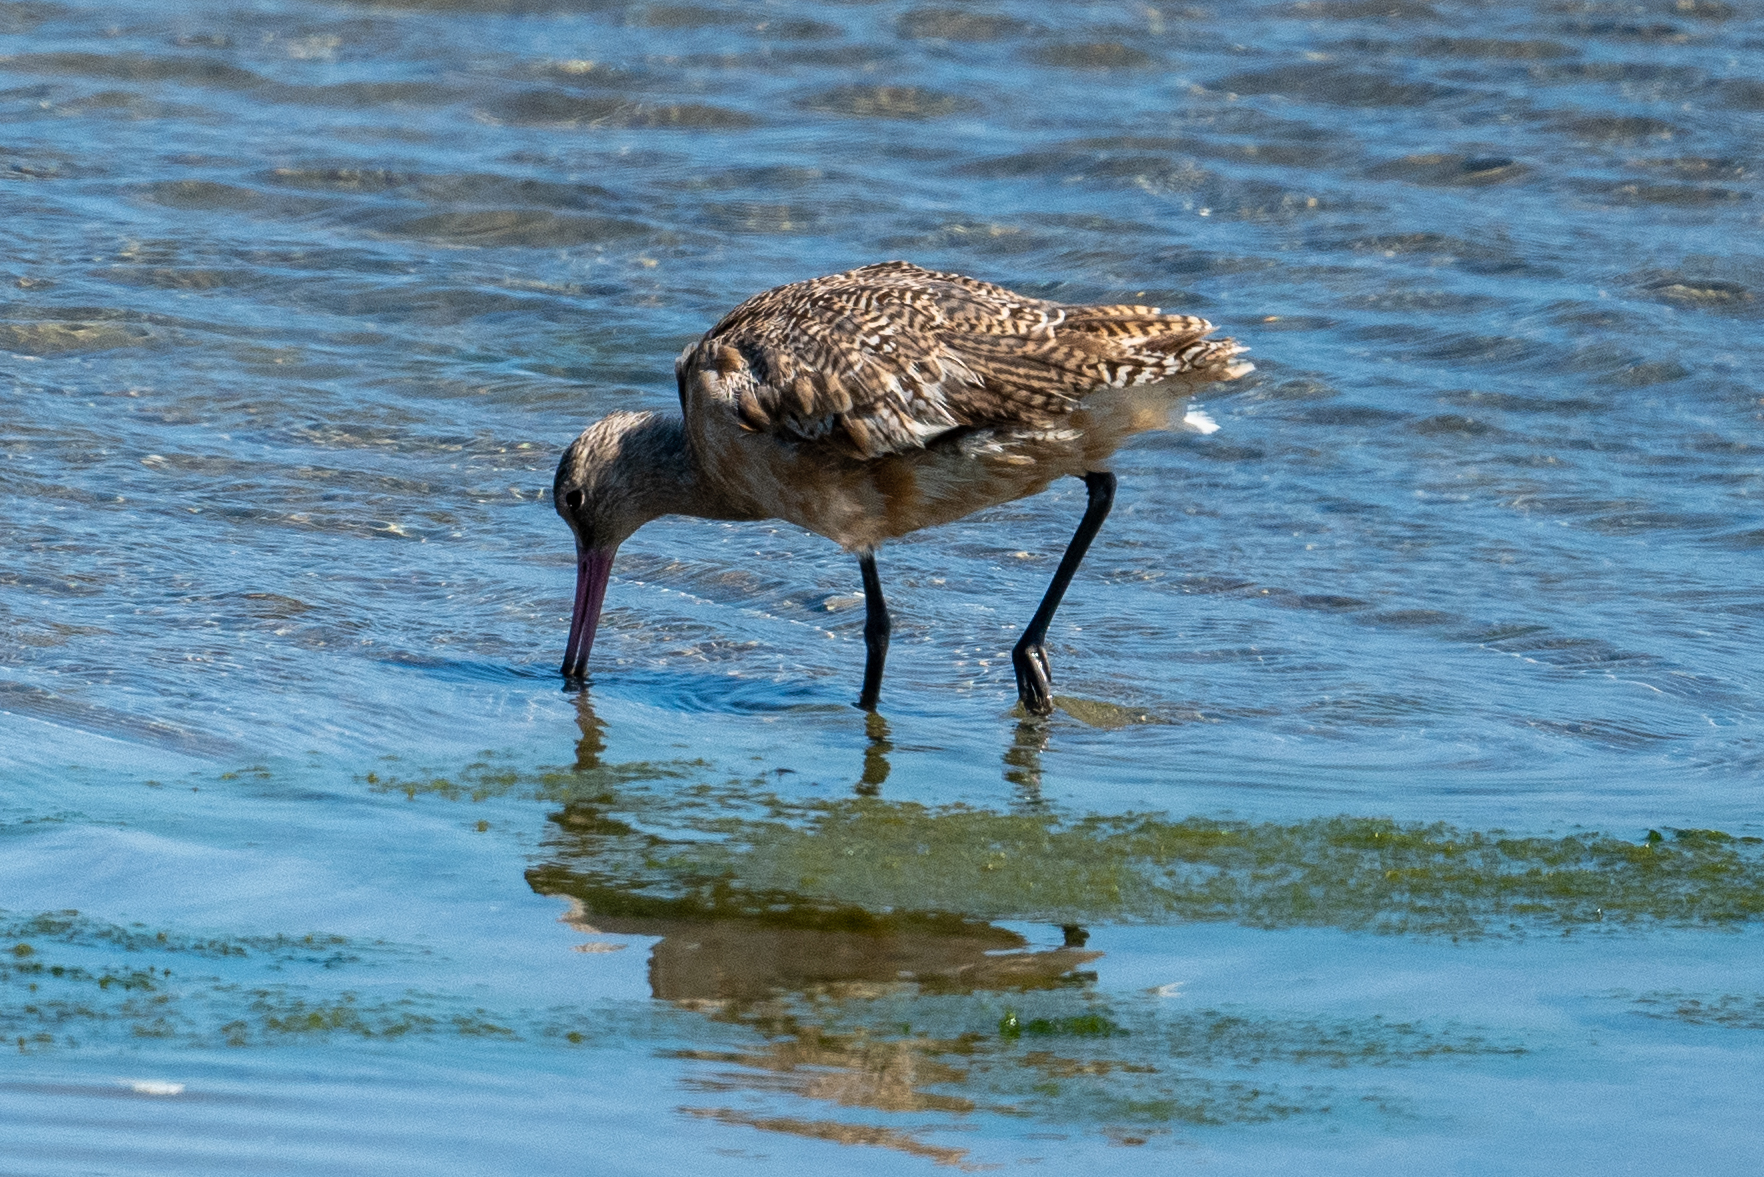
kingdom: Animalia
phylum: Chordata
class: Aves
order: Charadriiformes
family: Scolopacidae
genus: Limosa
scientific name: Limosa fedoa
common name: Marbled godwit
